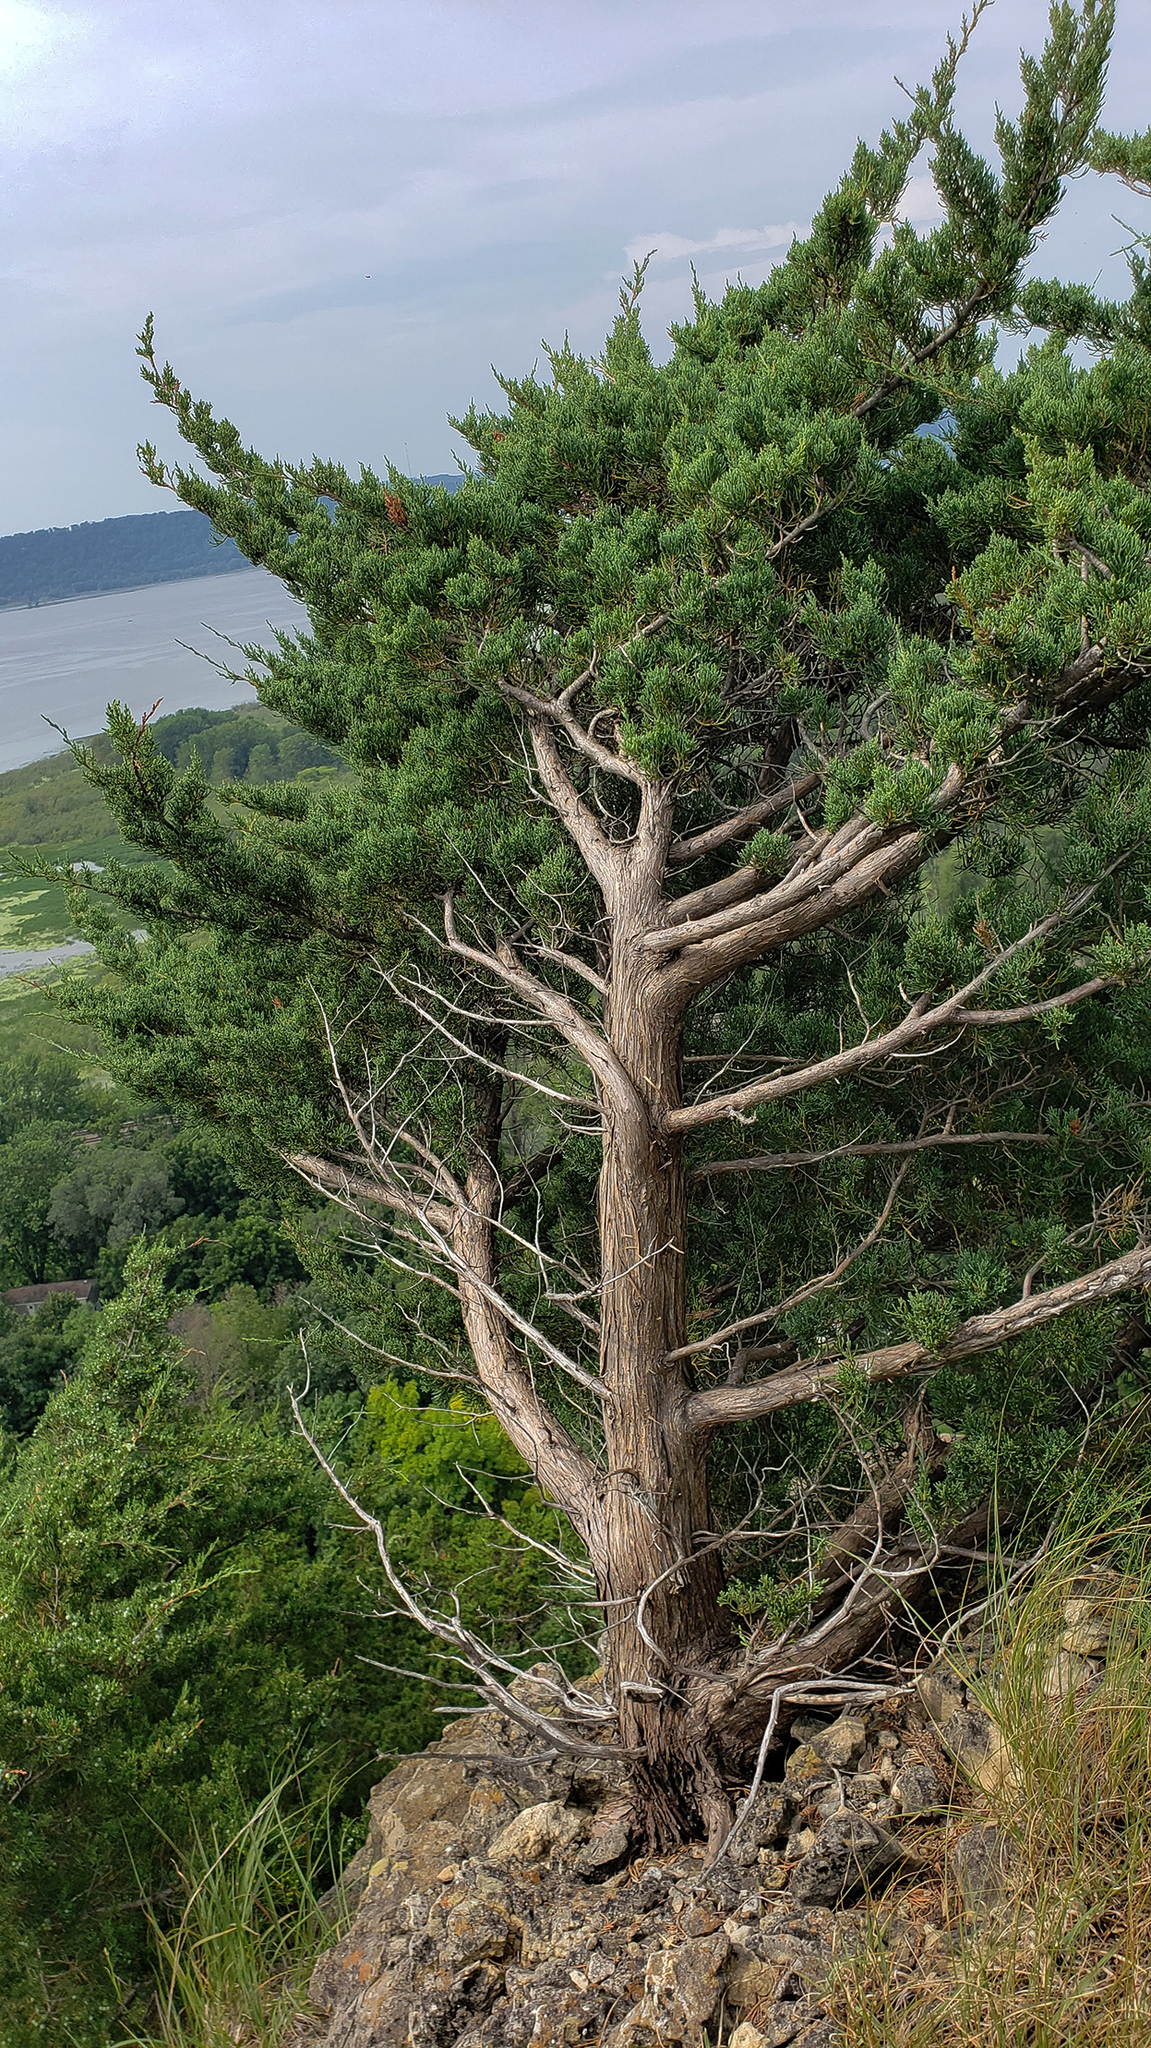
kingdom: Plantae
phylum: Tracheophyta
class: Pinopsida
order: Pinales
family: Cupressaceae
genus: Juniperus
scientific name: Juniperus virginiana
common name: Red juniper
